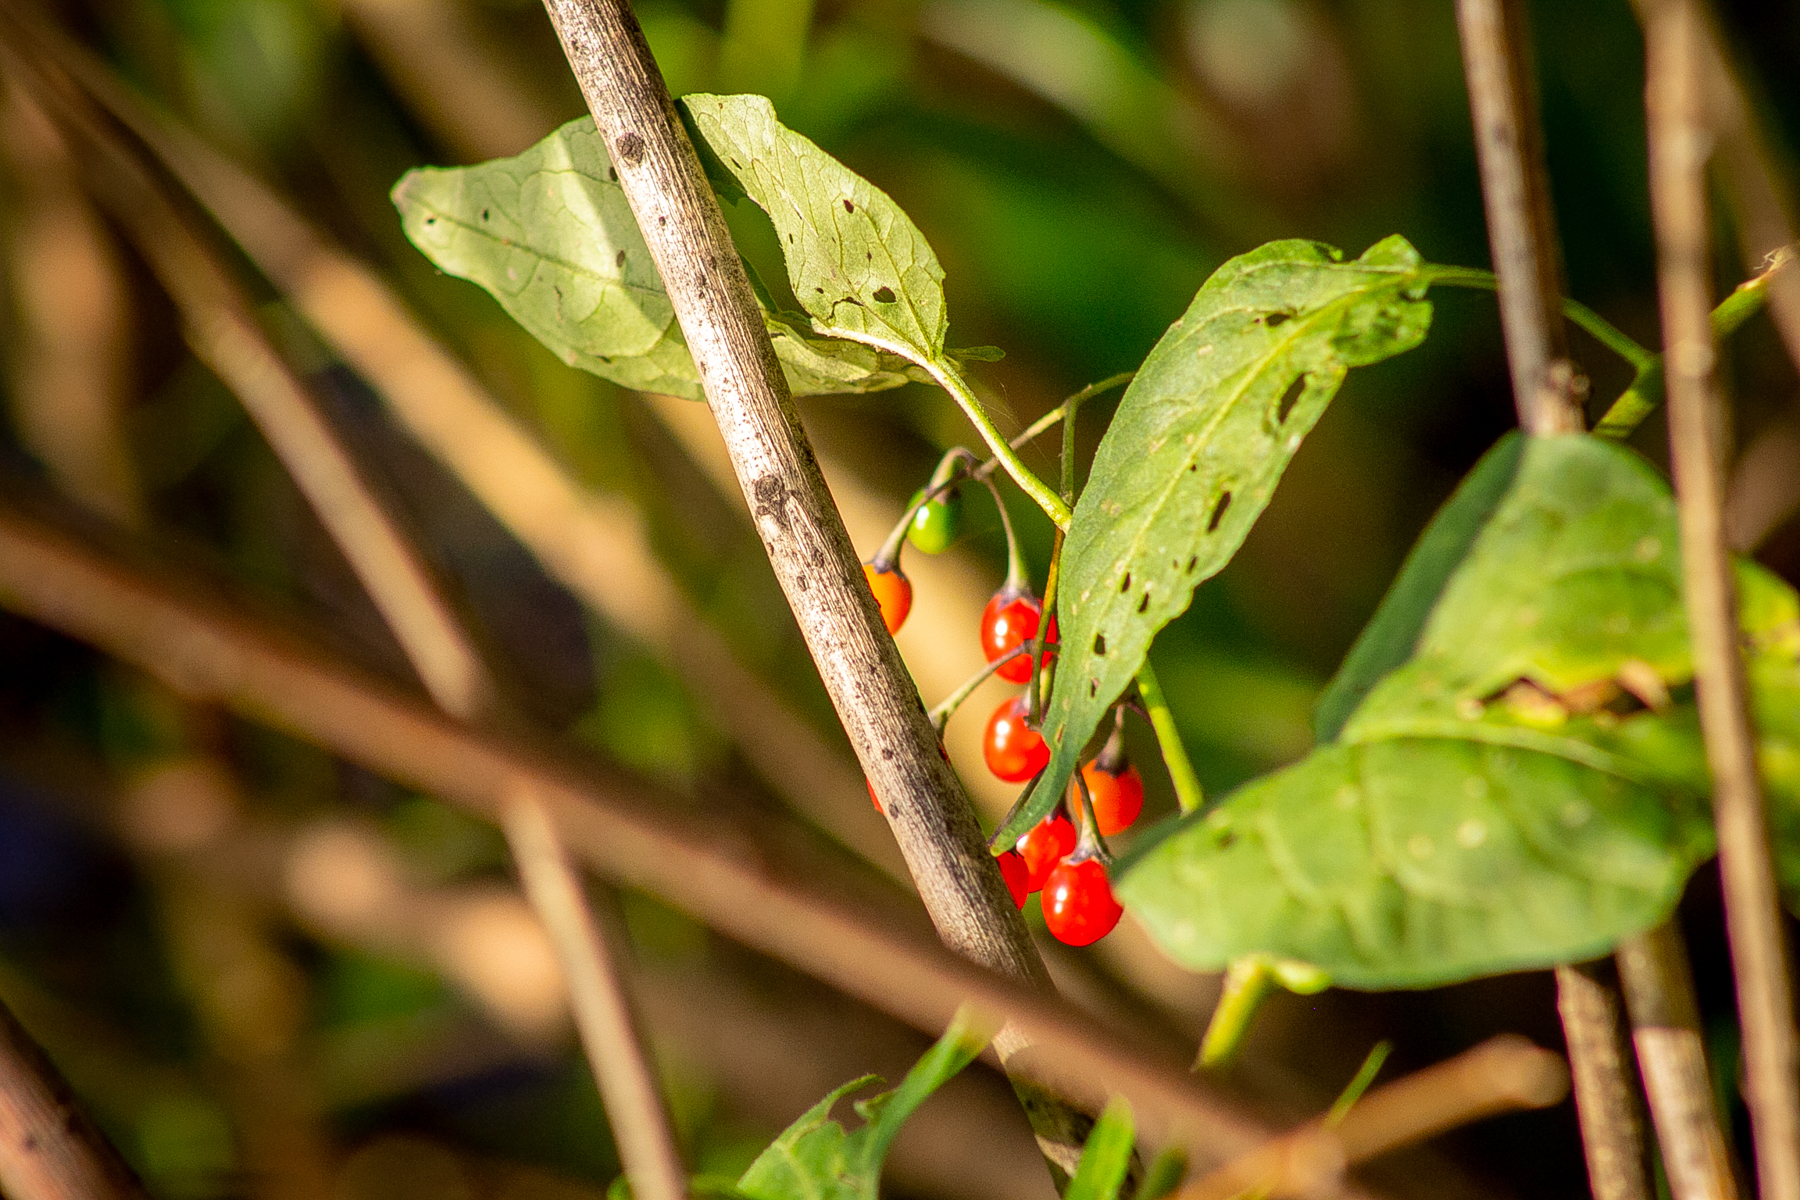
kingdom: Plantae
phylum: Tracheophyta
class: Magnoliopsida
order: Solanales
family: Solanaceae
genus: Solanum
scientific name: Solanum dulcamara
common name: Climbing nightshade
